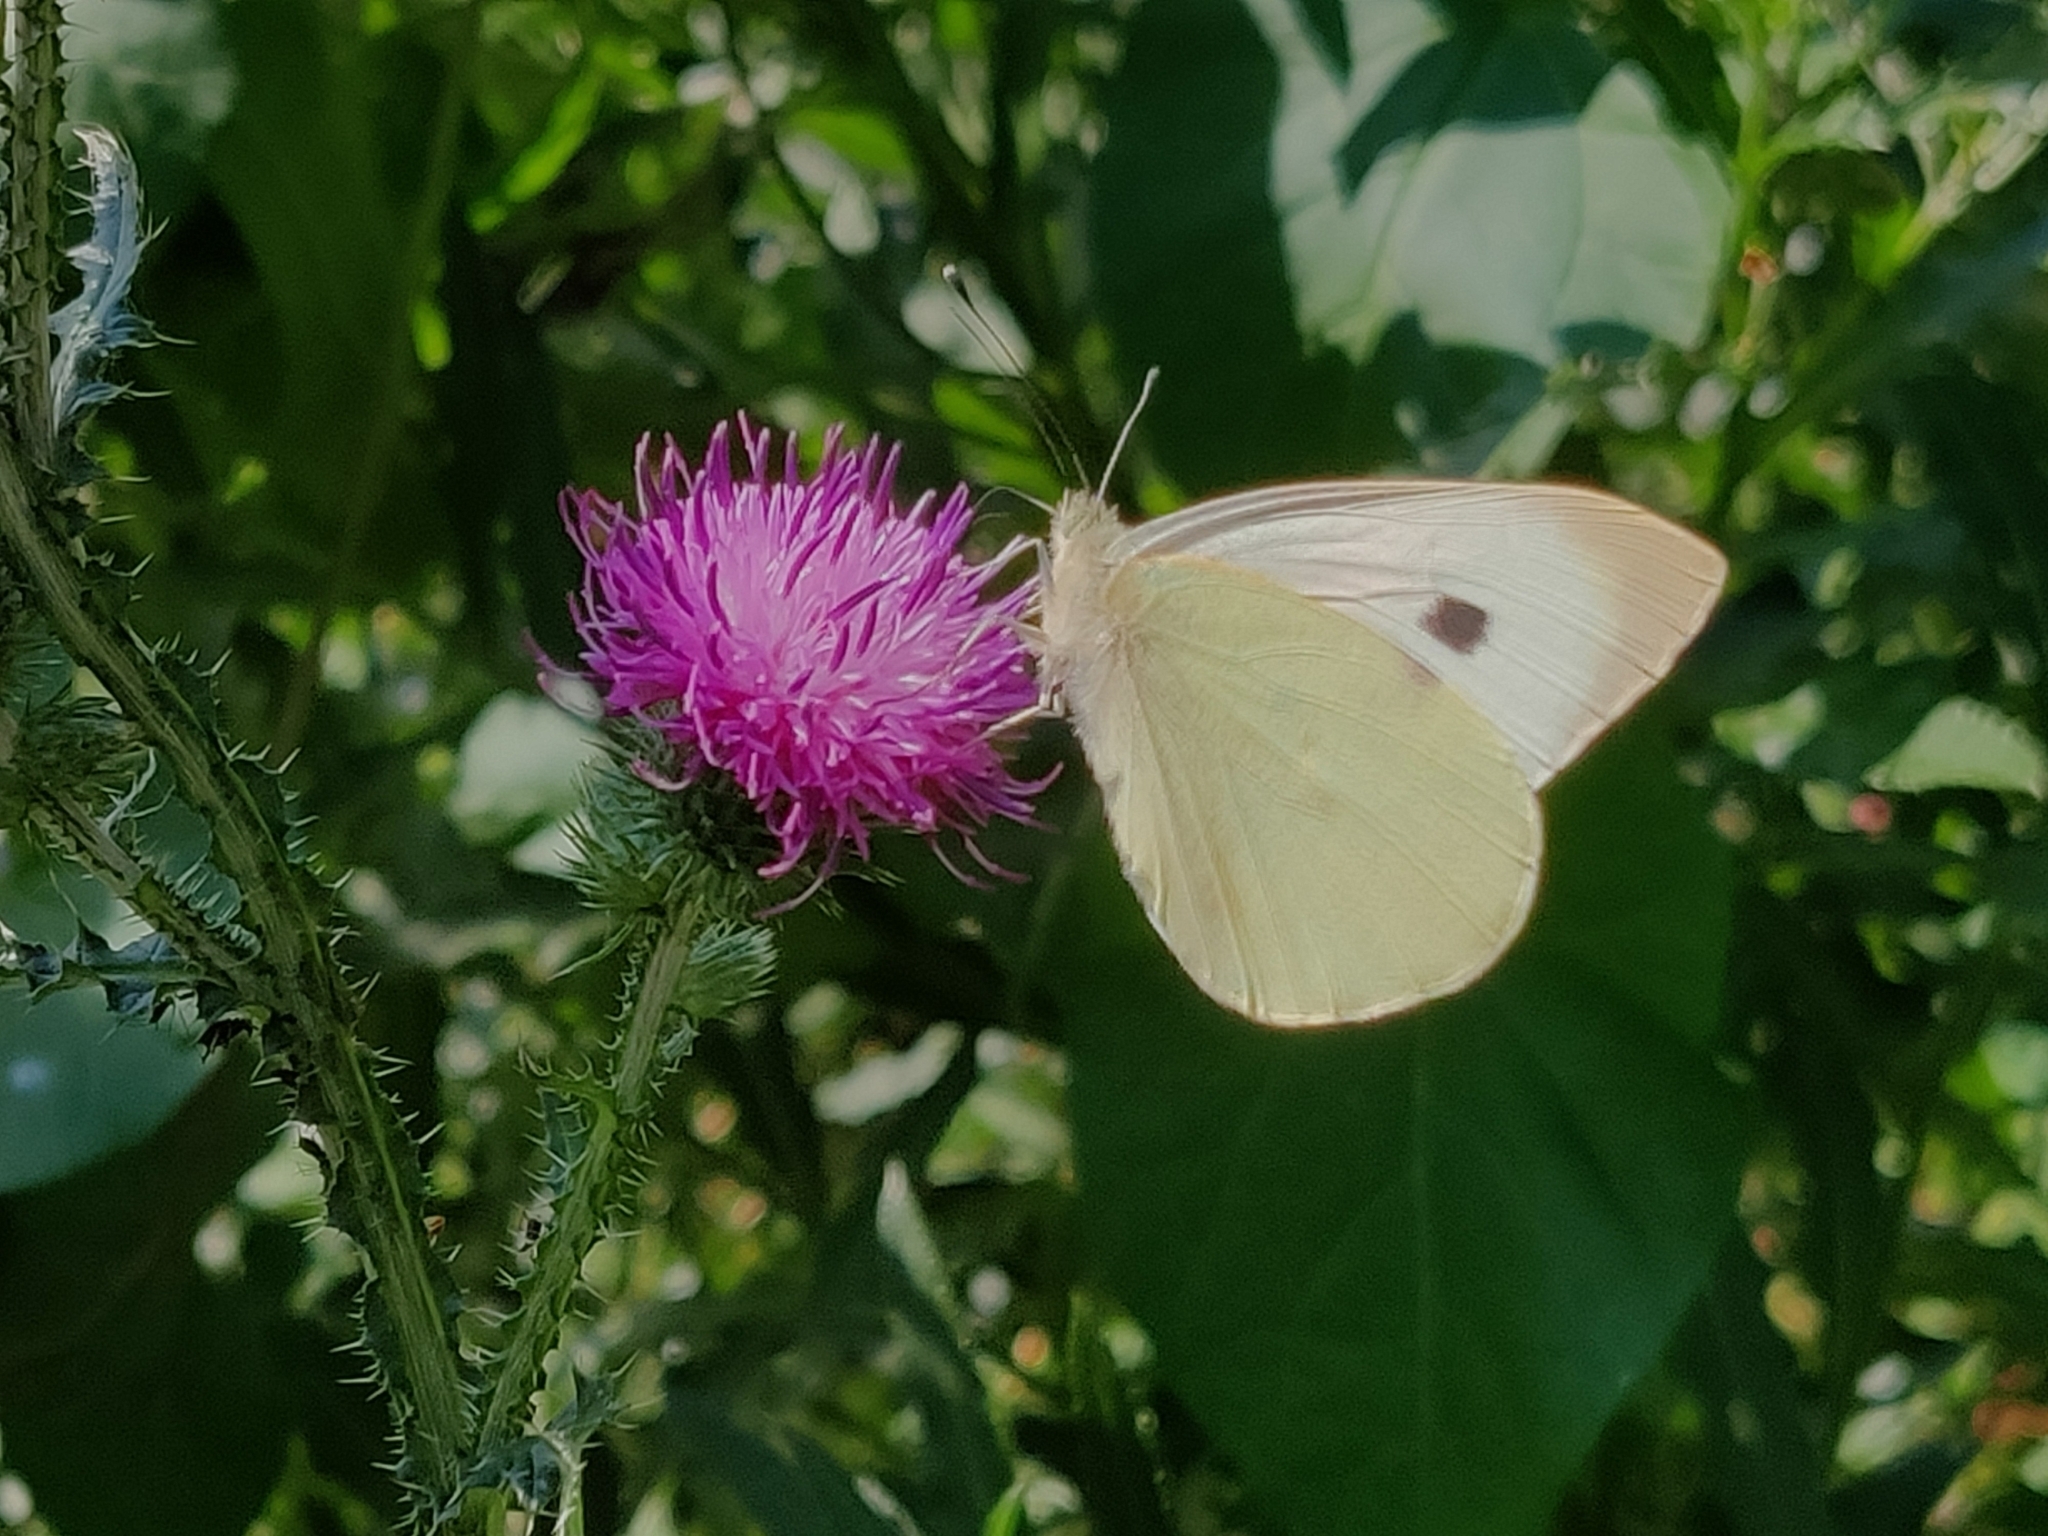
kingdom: Animalia
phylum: Arthropoda
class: Insecta
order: Lepidoptera
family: Pieridae
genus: Pieris
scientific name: Pieris brassicae
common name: Large white
